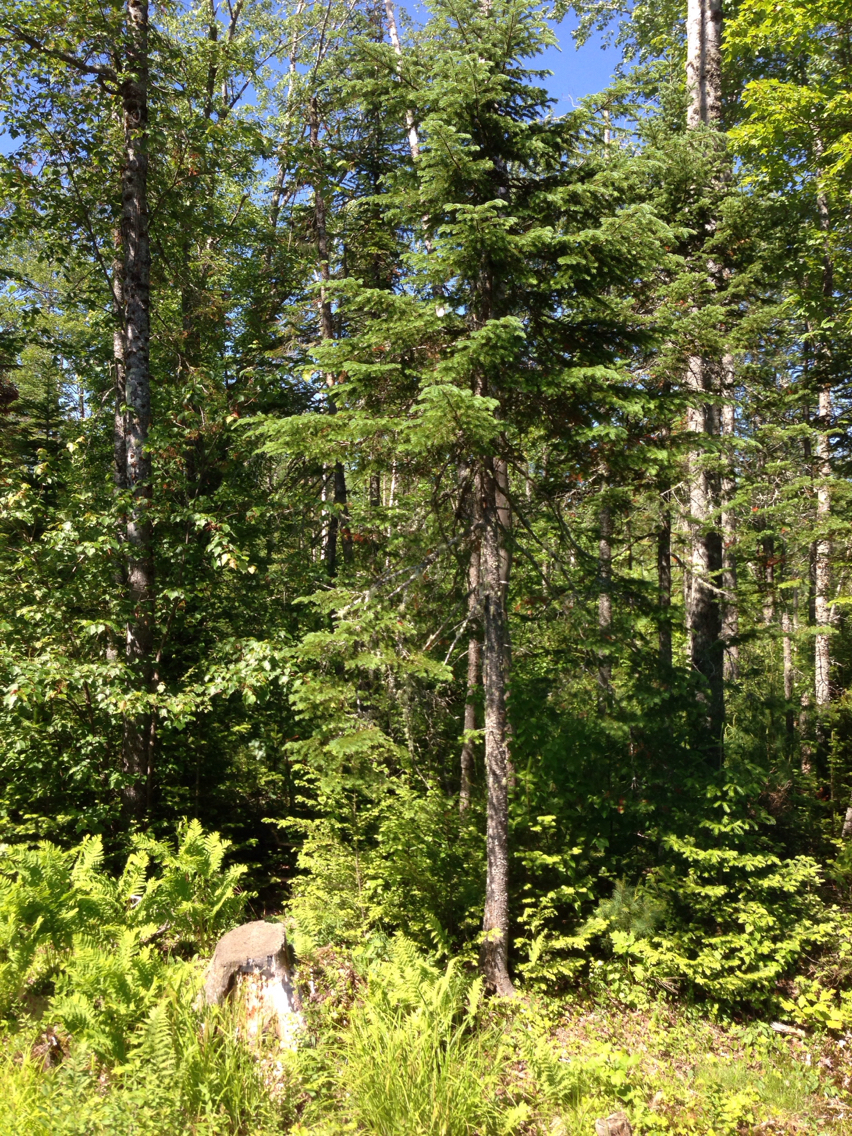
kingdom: Plantae
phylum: Tracheophyta
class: Pinopsida
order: Pinales
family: Pinaceae
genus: Abies
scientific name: Abies balsamea
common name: Balsam fir
